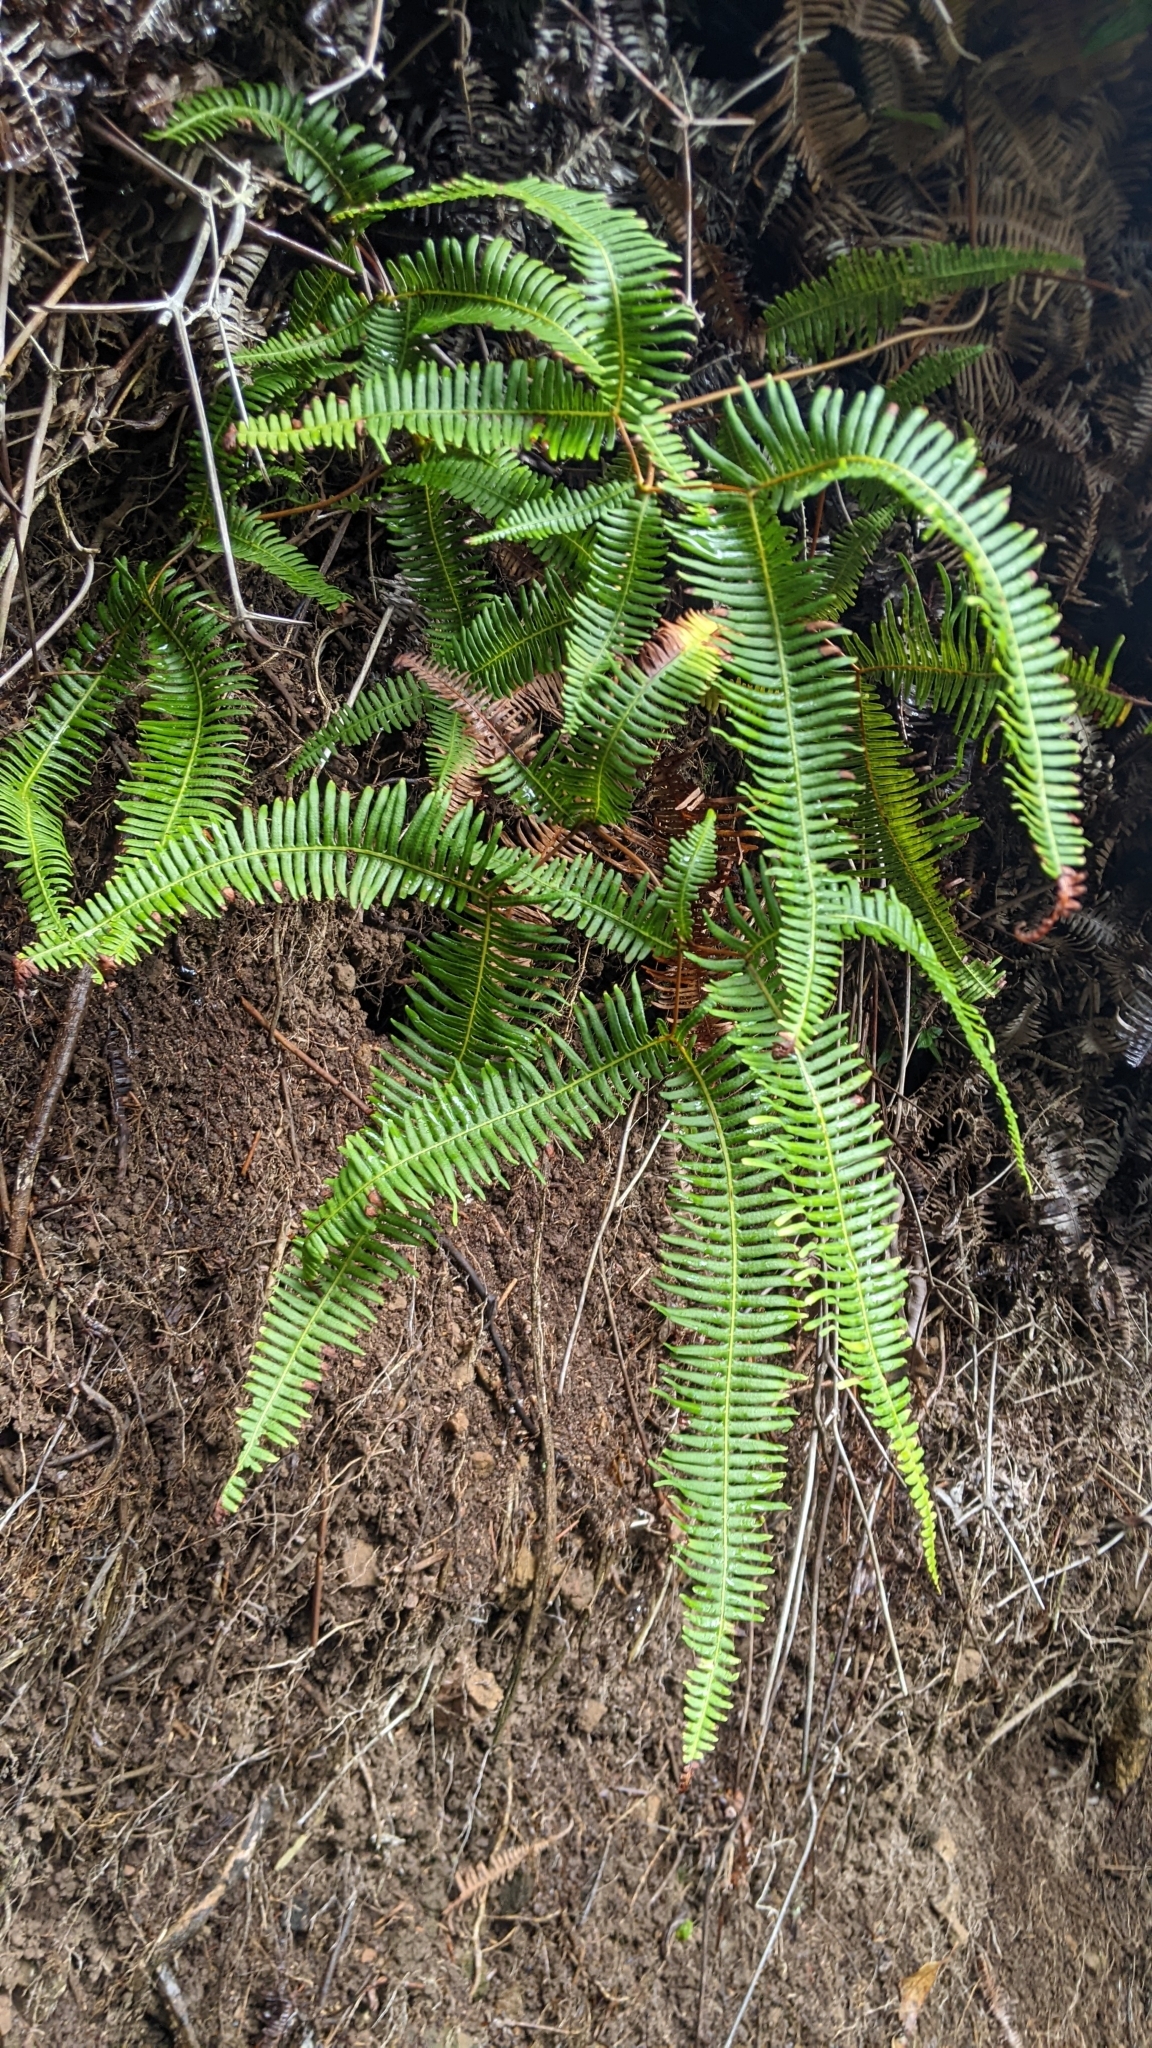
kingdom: Plantae
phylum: Tracheophyta
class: Polypodiopsida
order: Gleicheniales
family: Gleicheniaceae
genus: Dicranopteris
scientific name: Dicranopteris linearis
